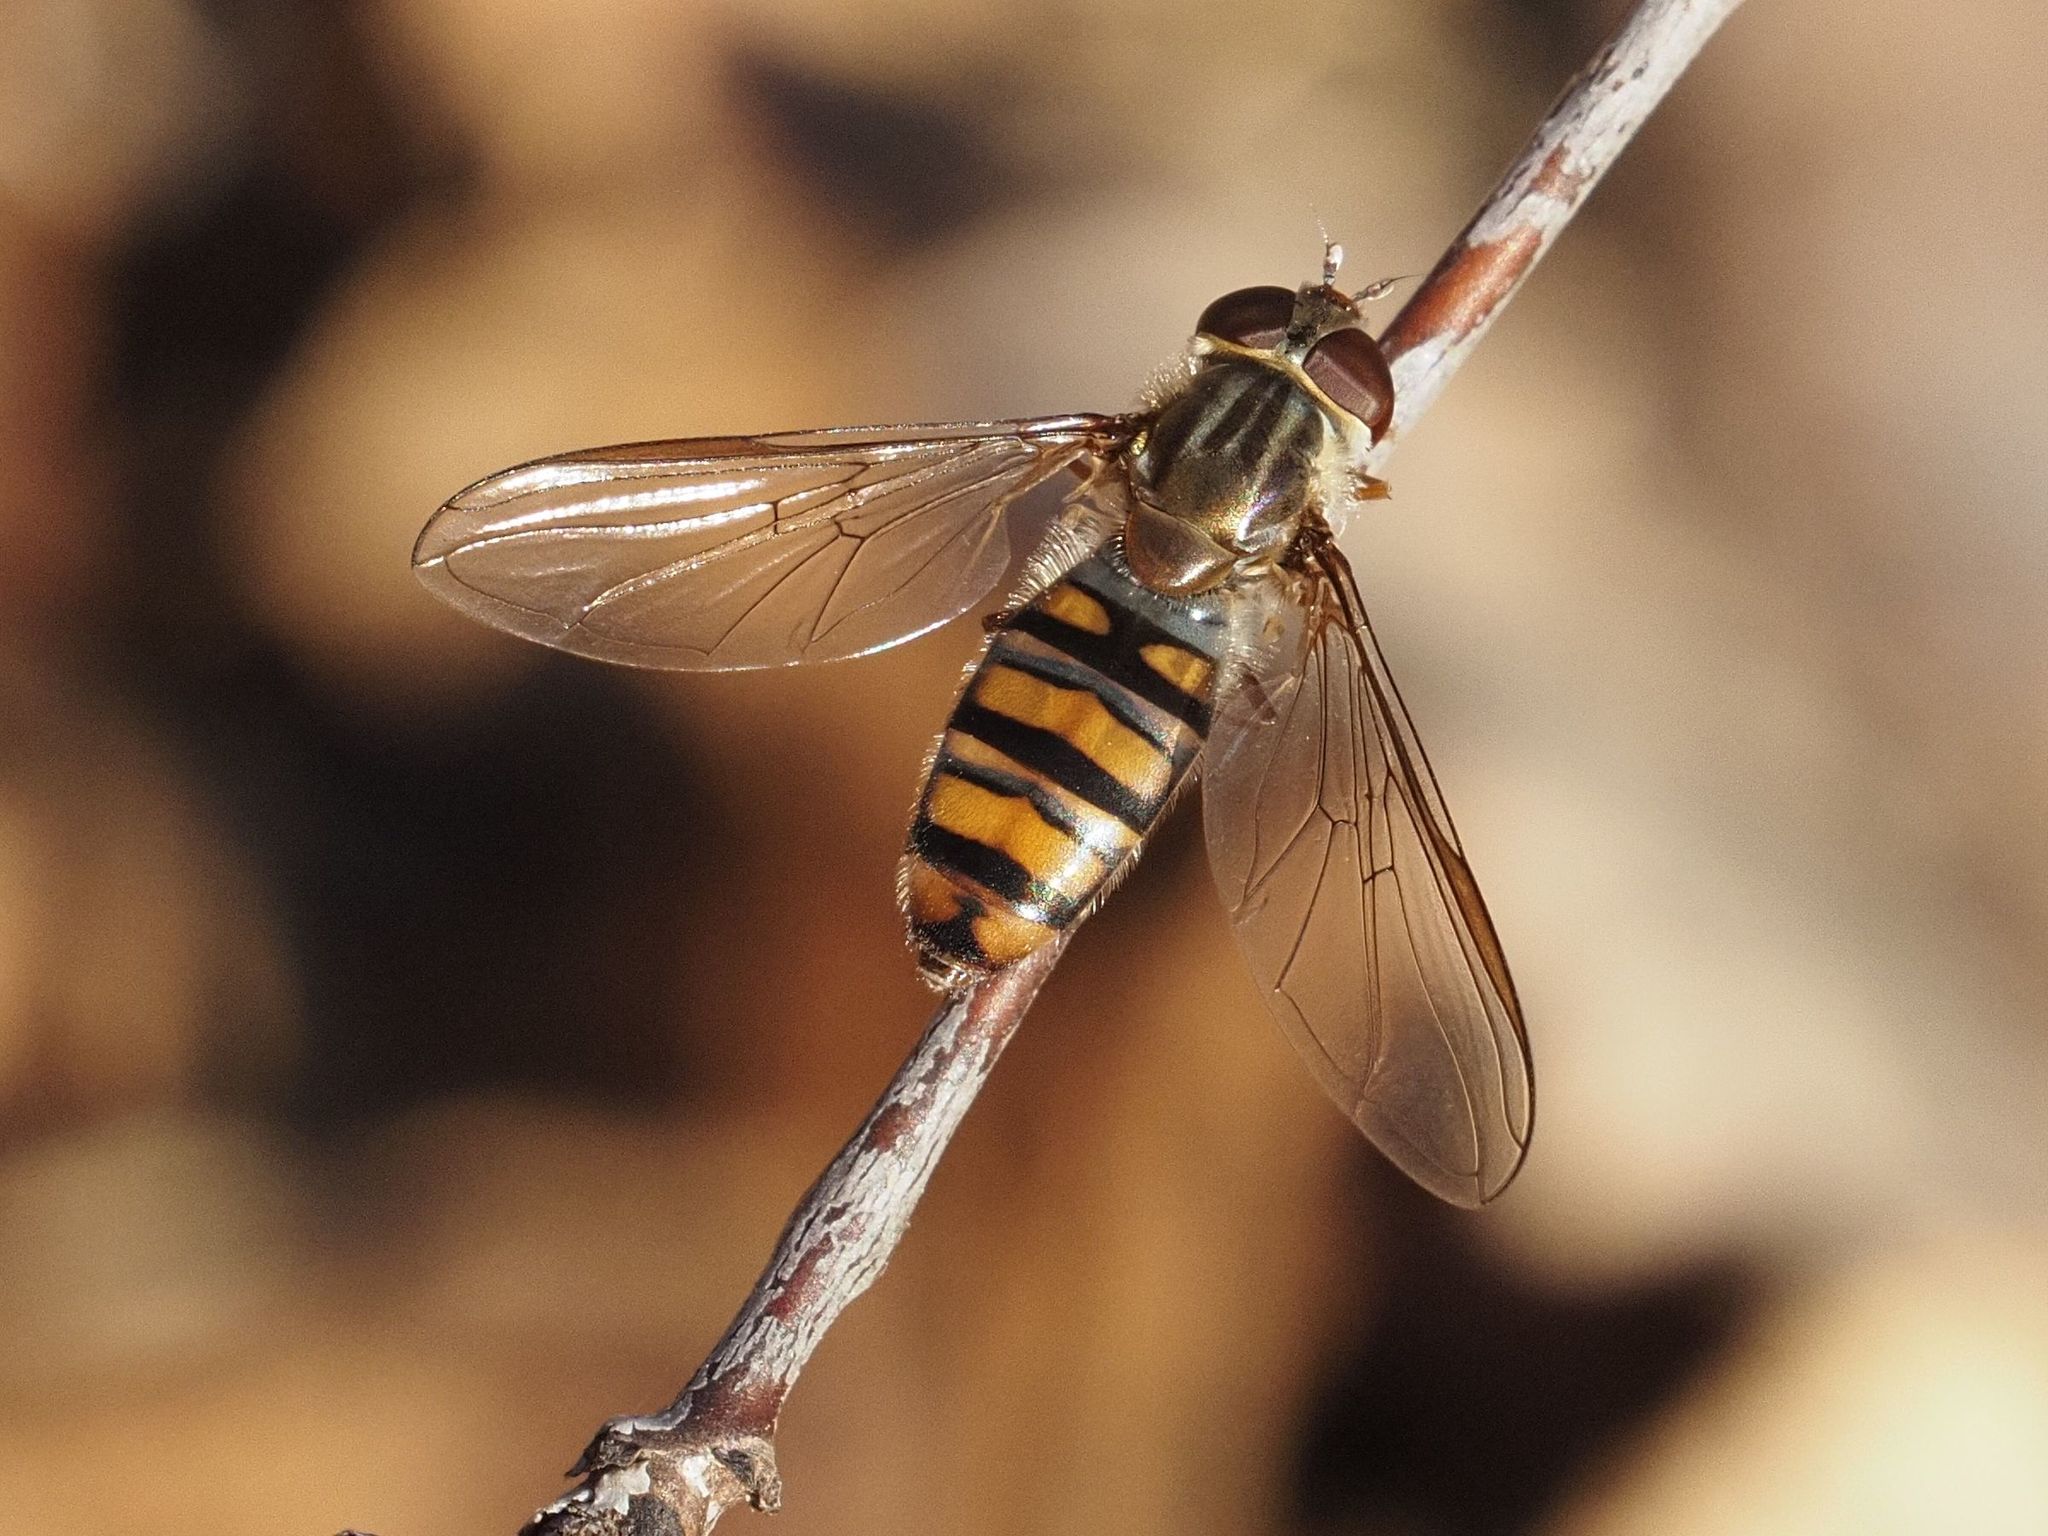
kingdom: Animalia
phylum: Arthropoda
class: Insecta
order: Diptera
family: Syrphidae
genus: Episyrphus
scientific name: Episyrphus balteatus
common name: Marmalade hoverfly
